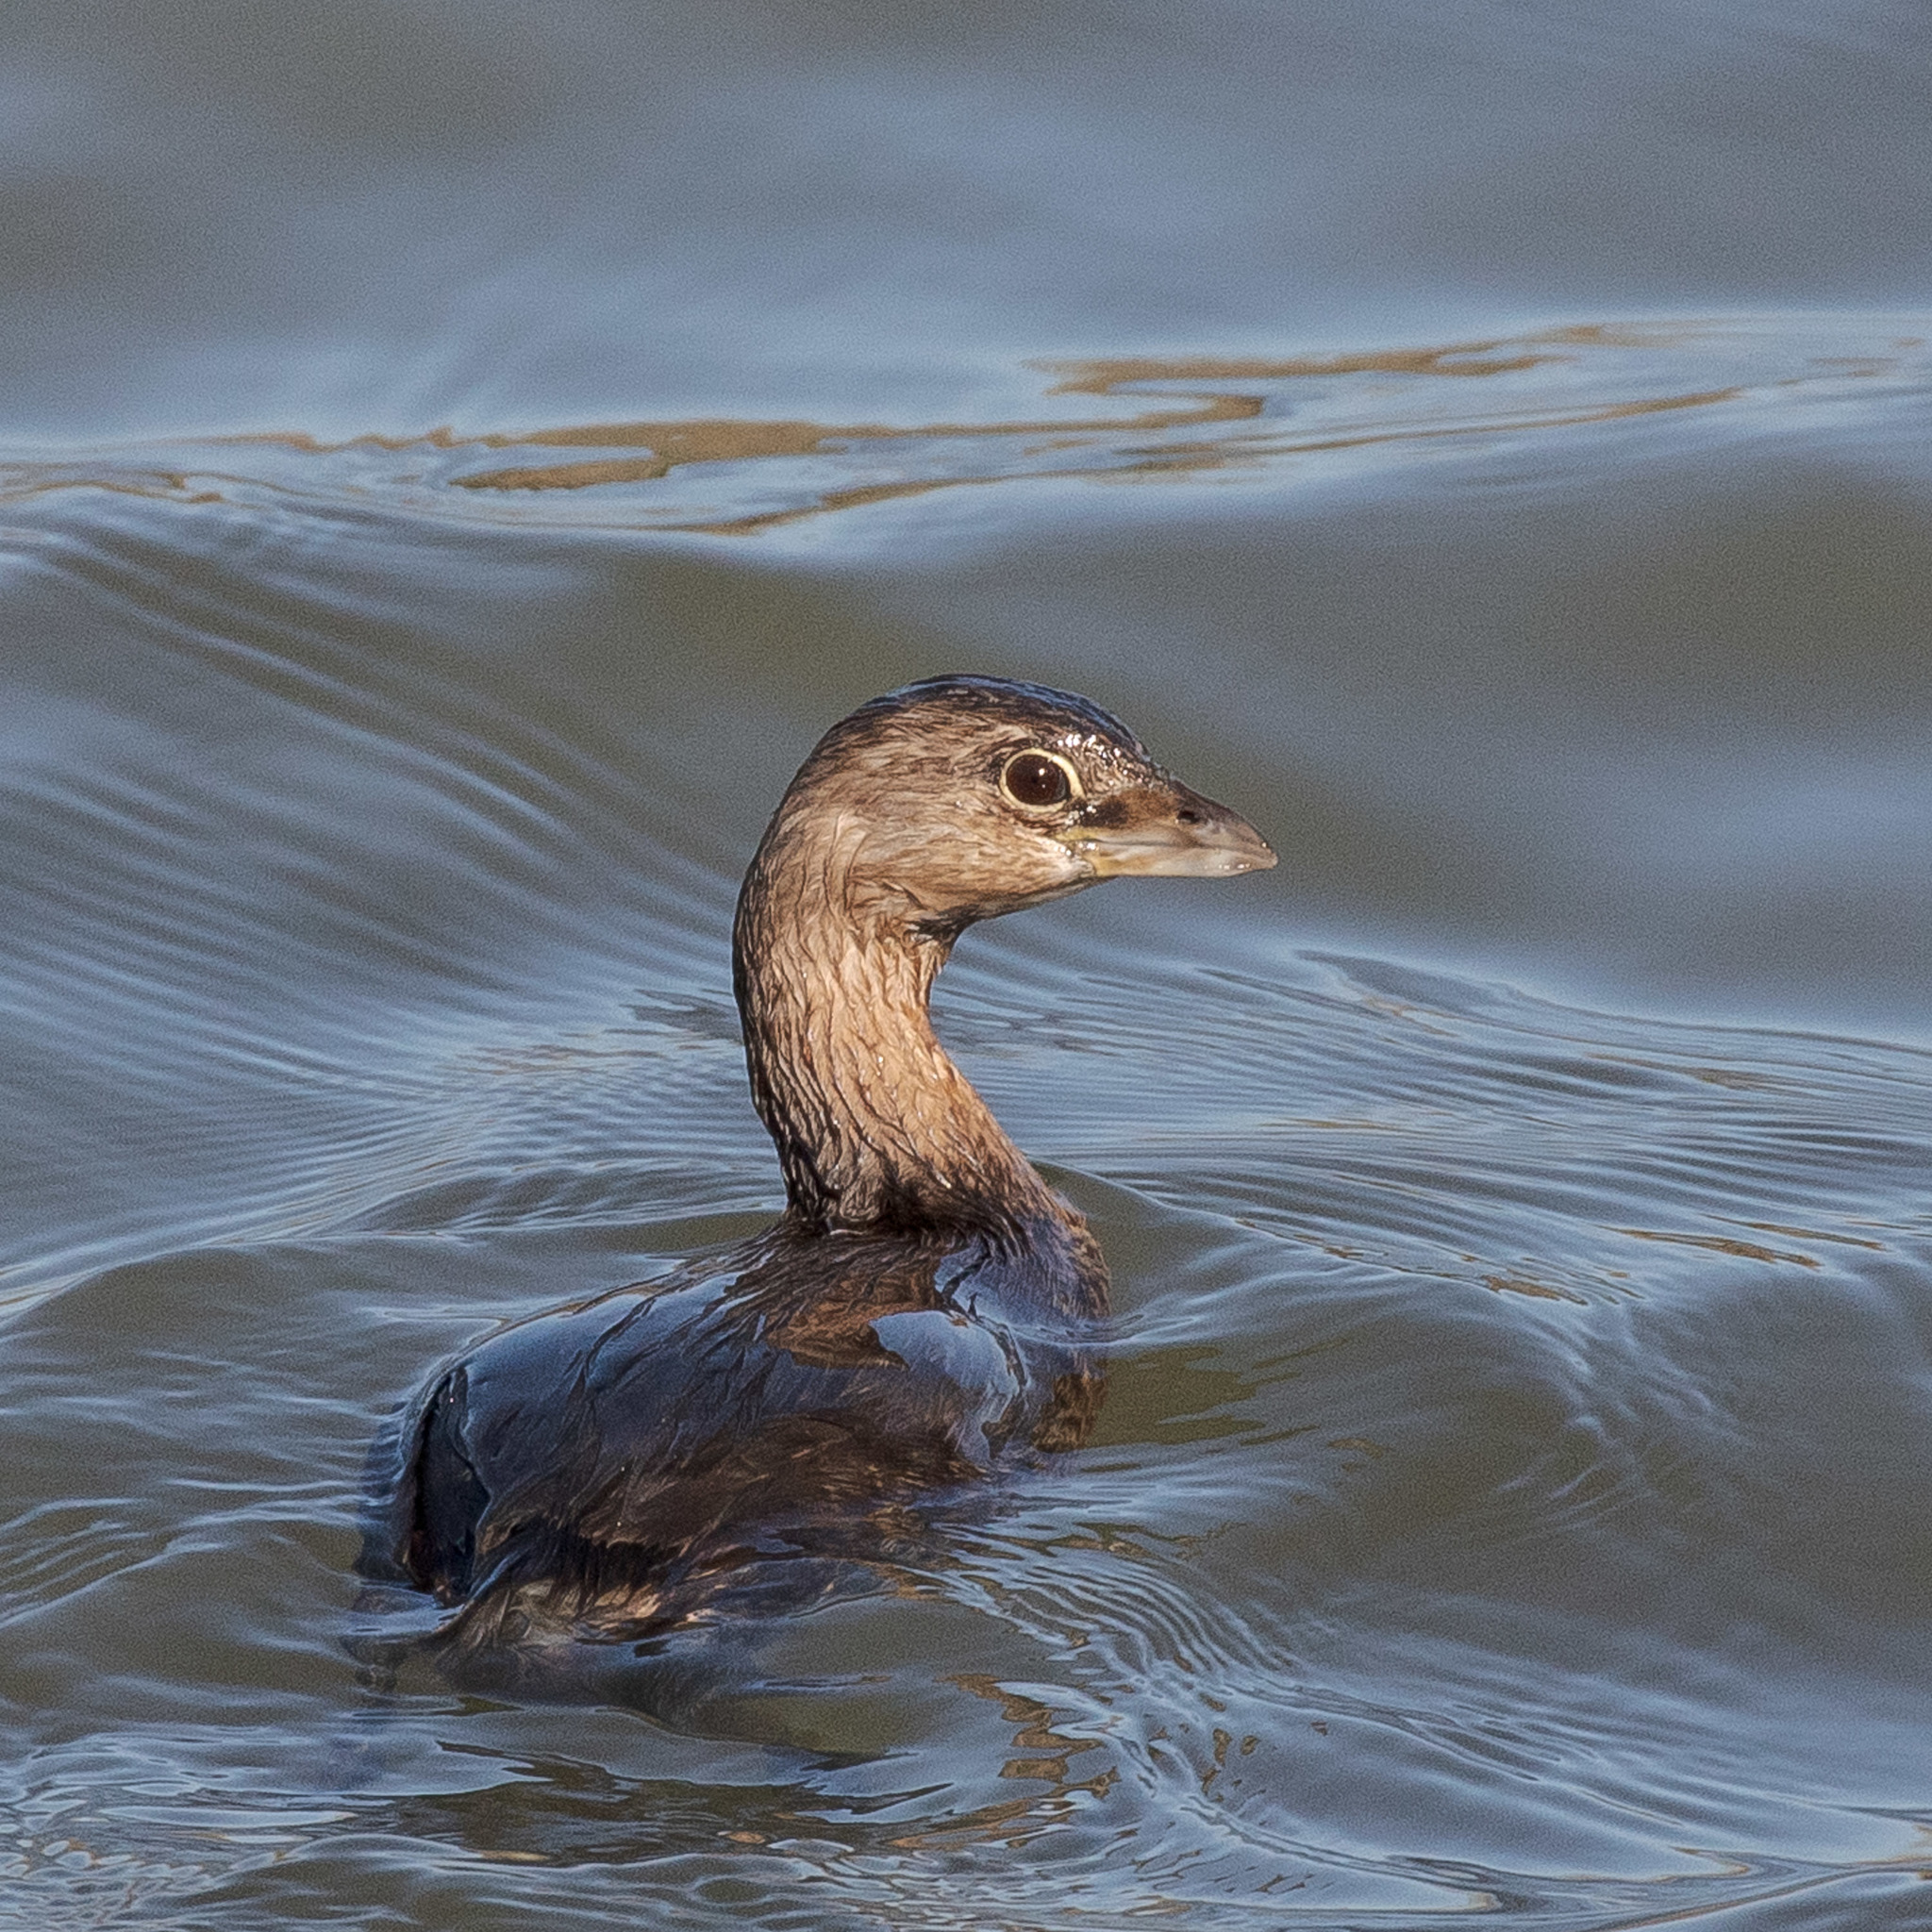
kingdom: Animalia
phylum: Chordata
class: Aves
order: Podicipediformes
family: Podicipedidae
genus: Podilymbus
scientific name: Podilymbus podiceps
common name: Pied-billed grebe
